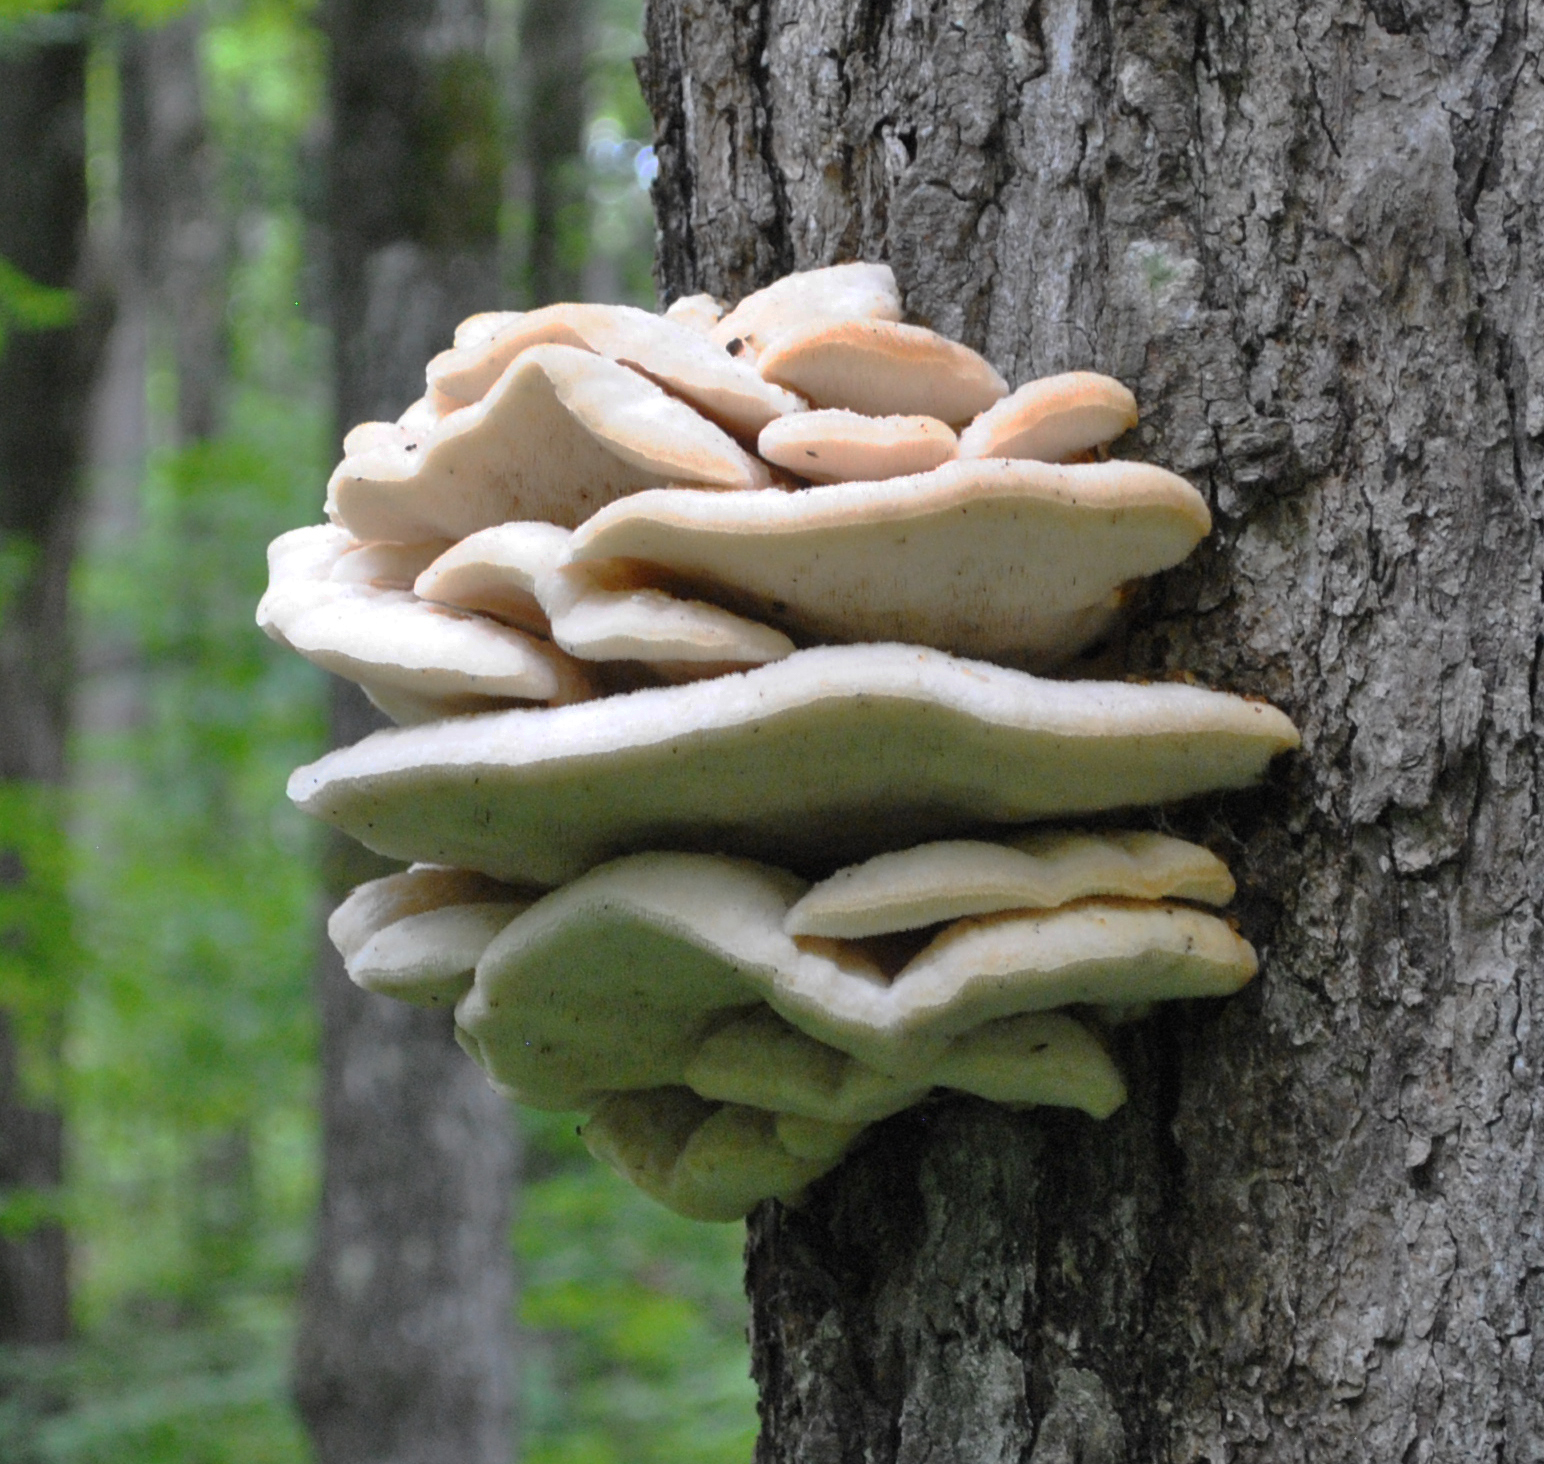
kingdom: Fungi
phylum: Basidiomycota
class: Agaricomycetes
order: Polyporales
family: Meruliaceae
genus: Climacodon
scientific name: Climacodon septentrionalis
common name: Northern tooth
